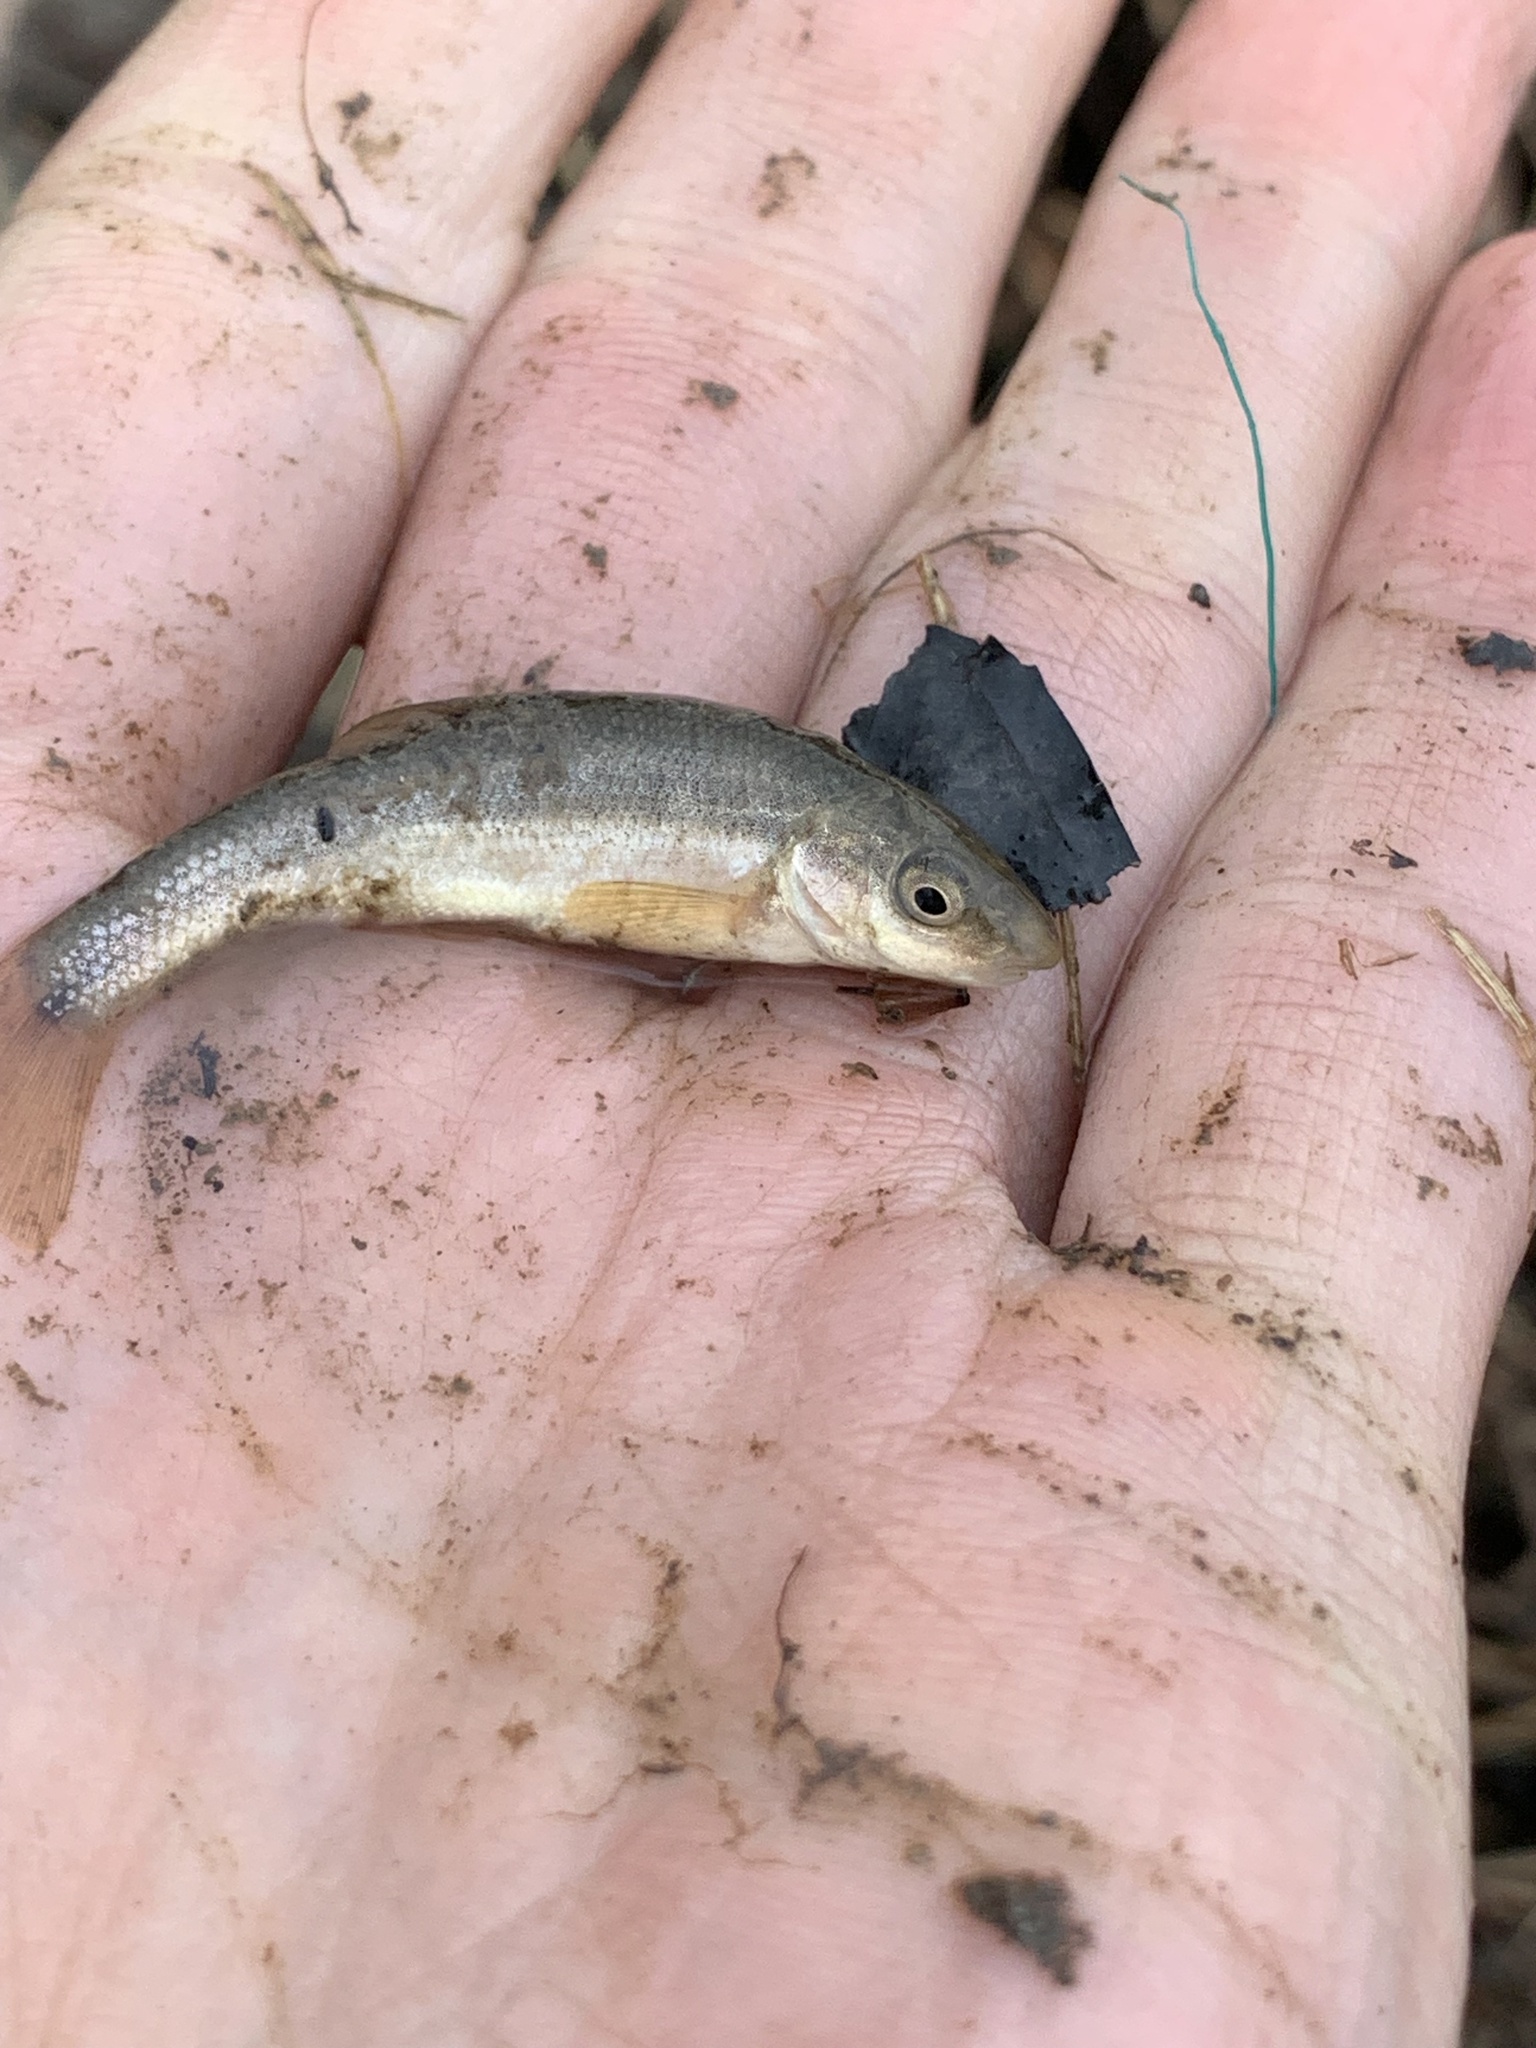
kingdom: Animalia
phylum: Chordata
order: Cypriniformes
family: Cyprinidae
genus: Campostoma
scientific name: Campostoma anomalum
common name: Central stoneroller
